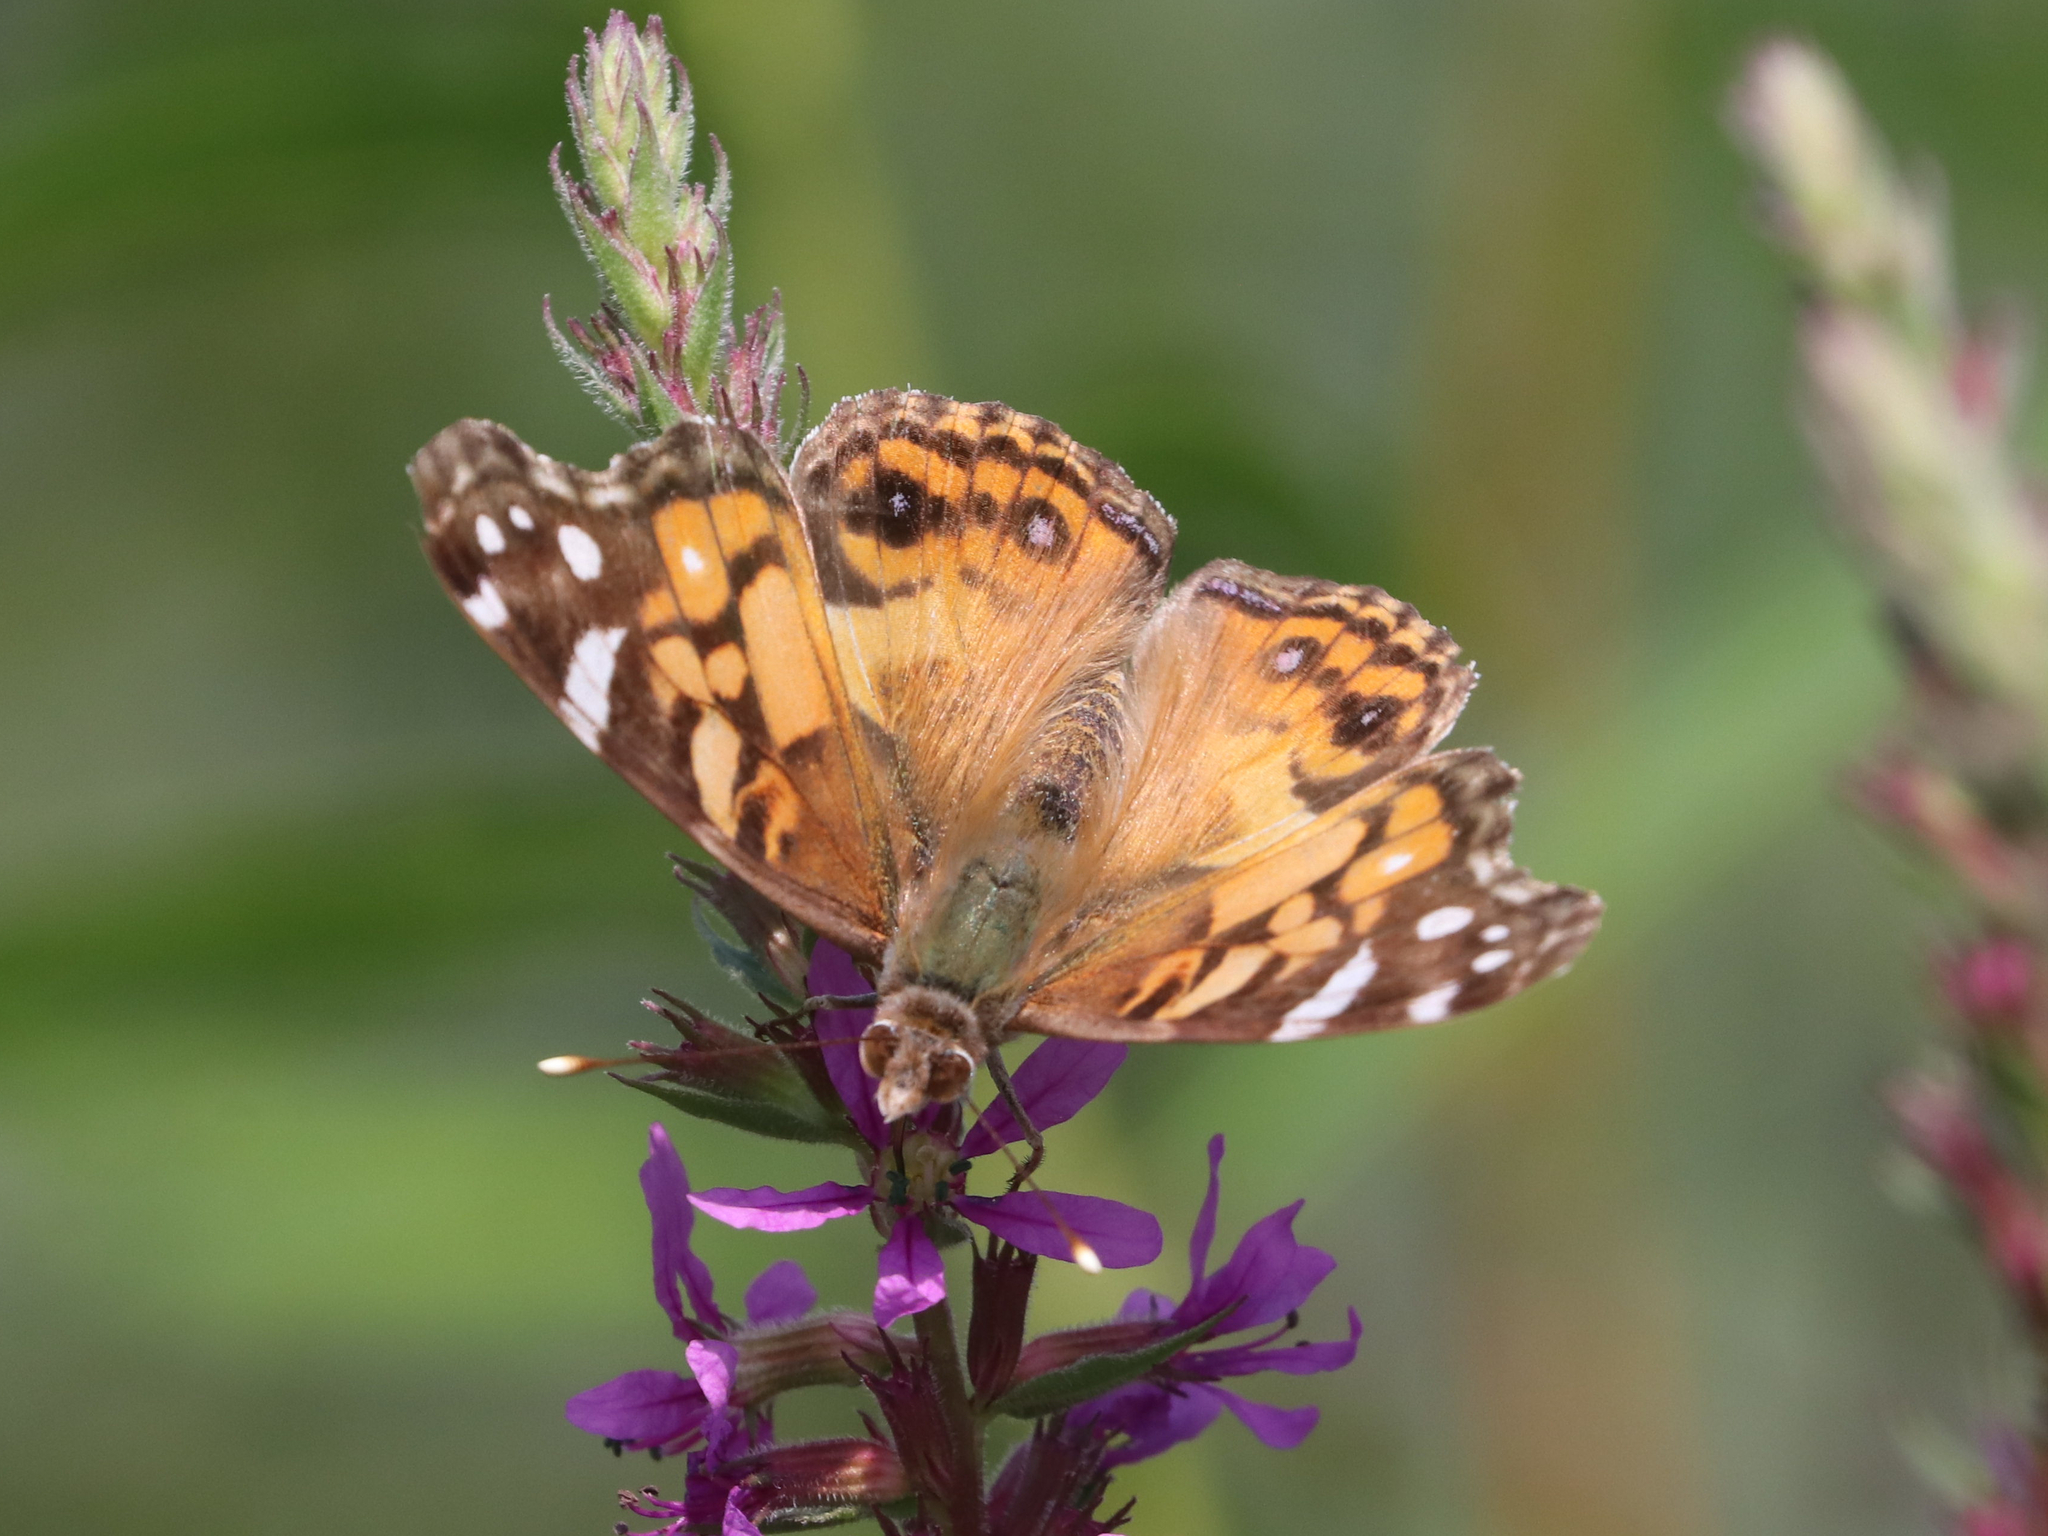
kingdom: Animalia
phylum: Arthropoda
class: Insecta
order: Lepidoptera
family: Nymphalidae
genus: Vanessa
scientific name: Vanessa virginiensis
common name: American lady
